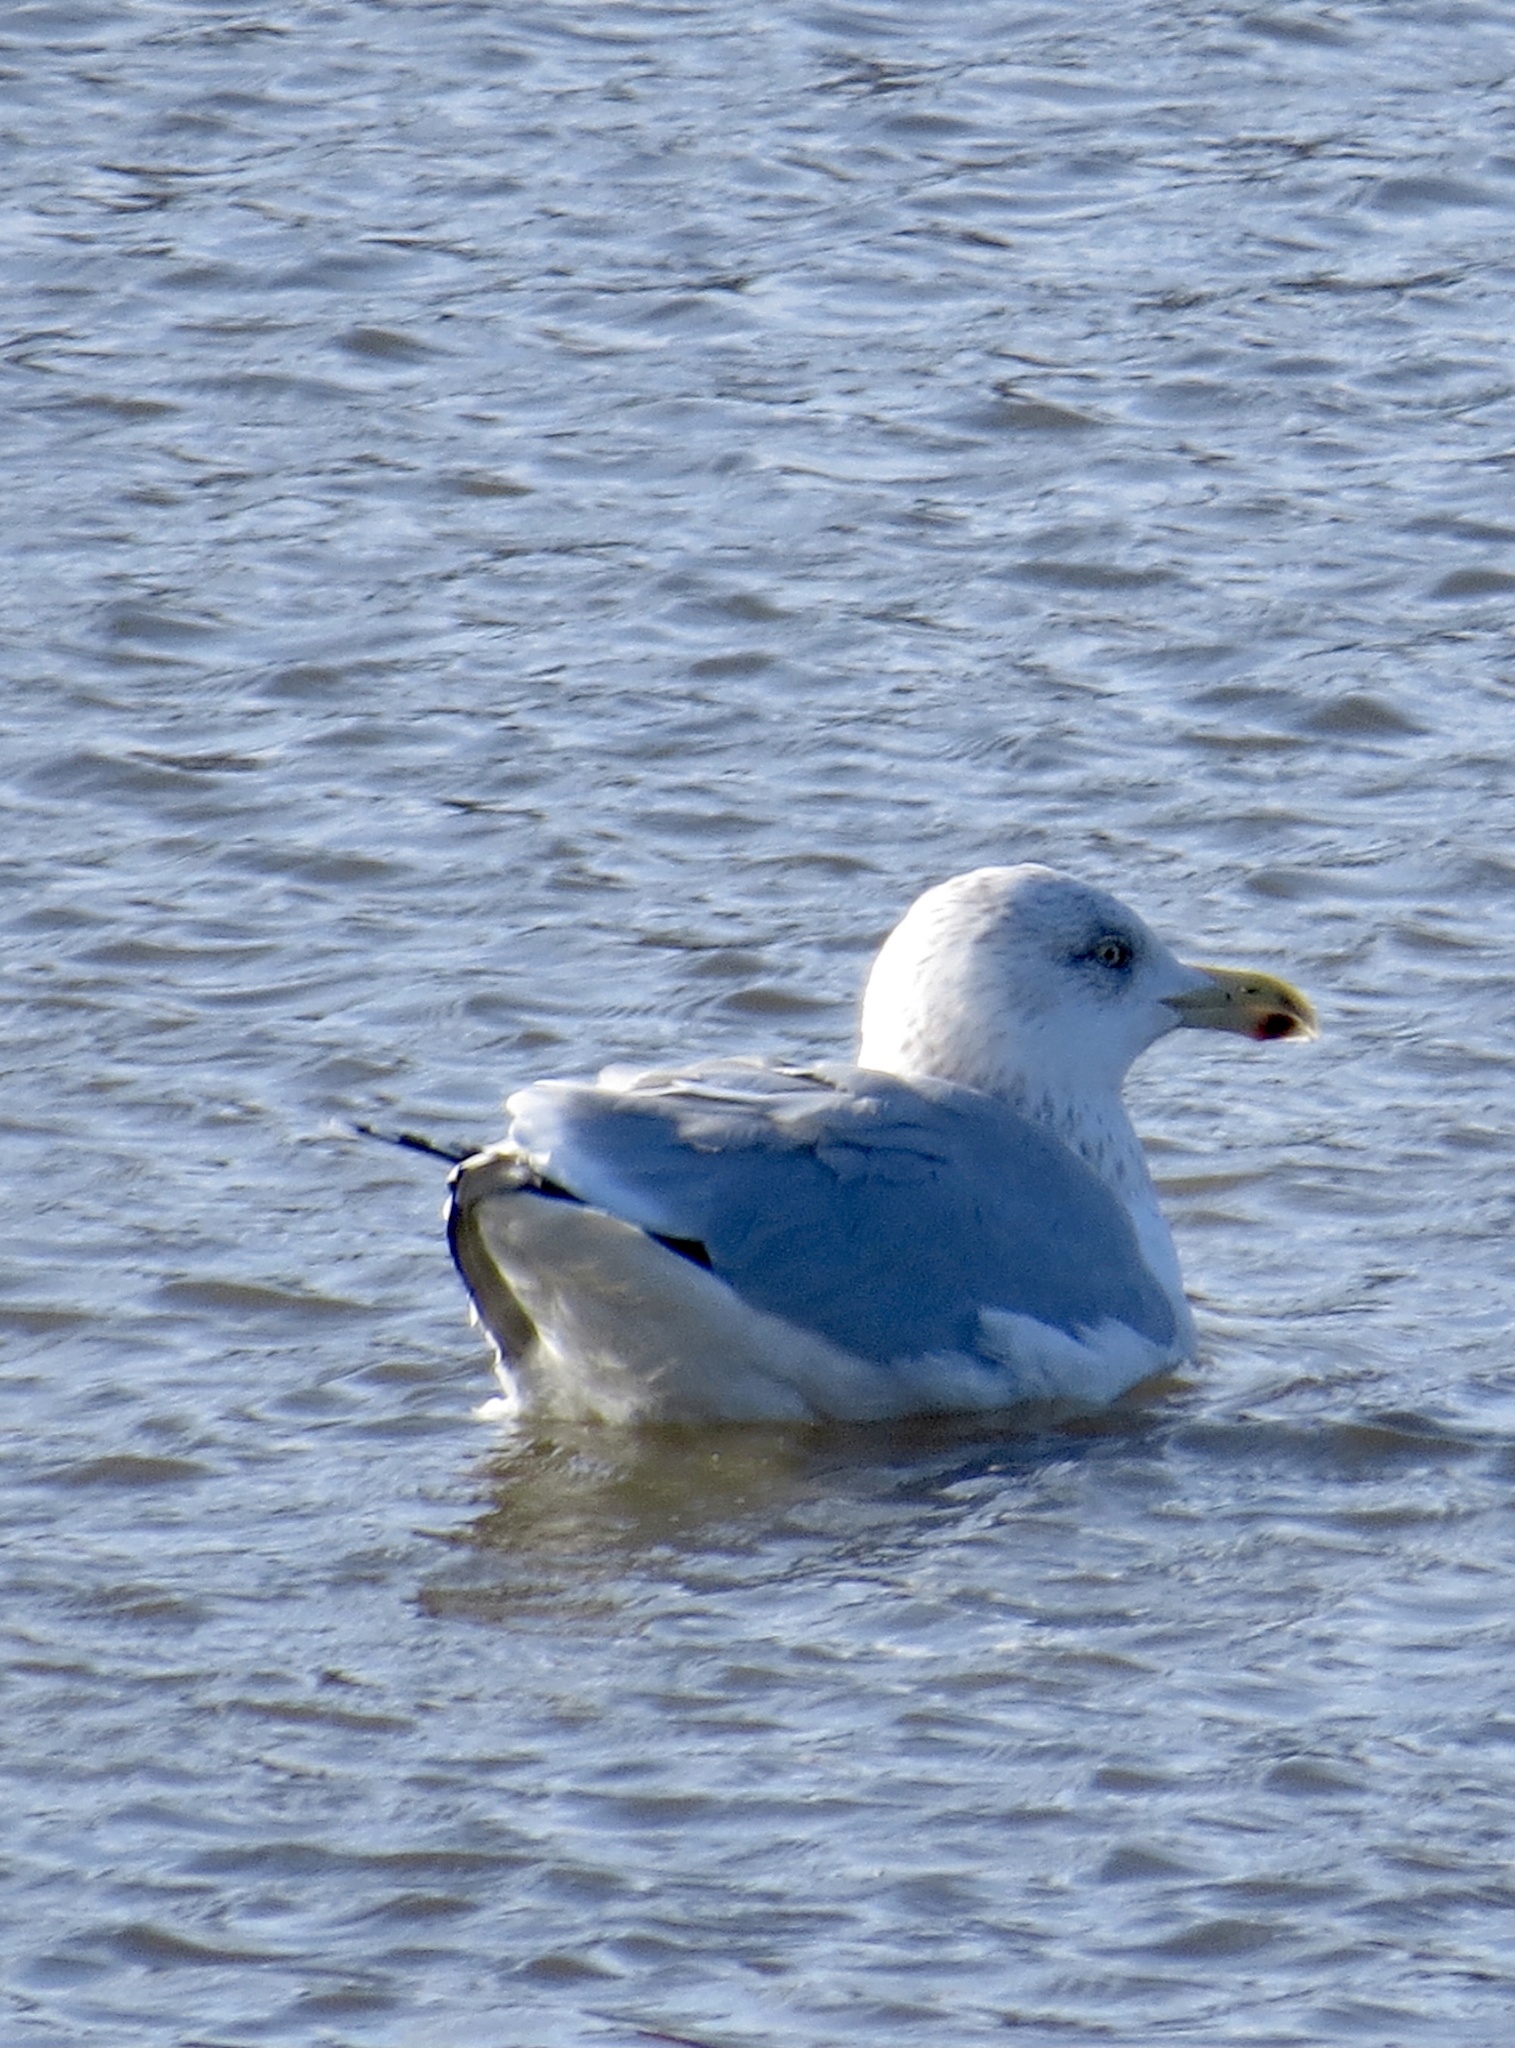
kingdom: Animalia
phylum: Chordata
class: Aves
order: Charadriiformes
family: Laridae
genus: Larus
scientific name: Larus argentatus
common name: Herring gull
